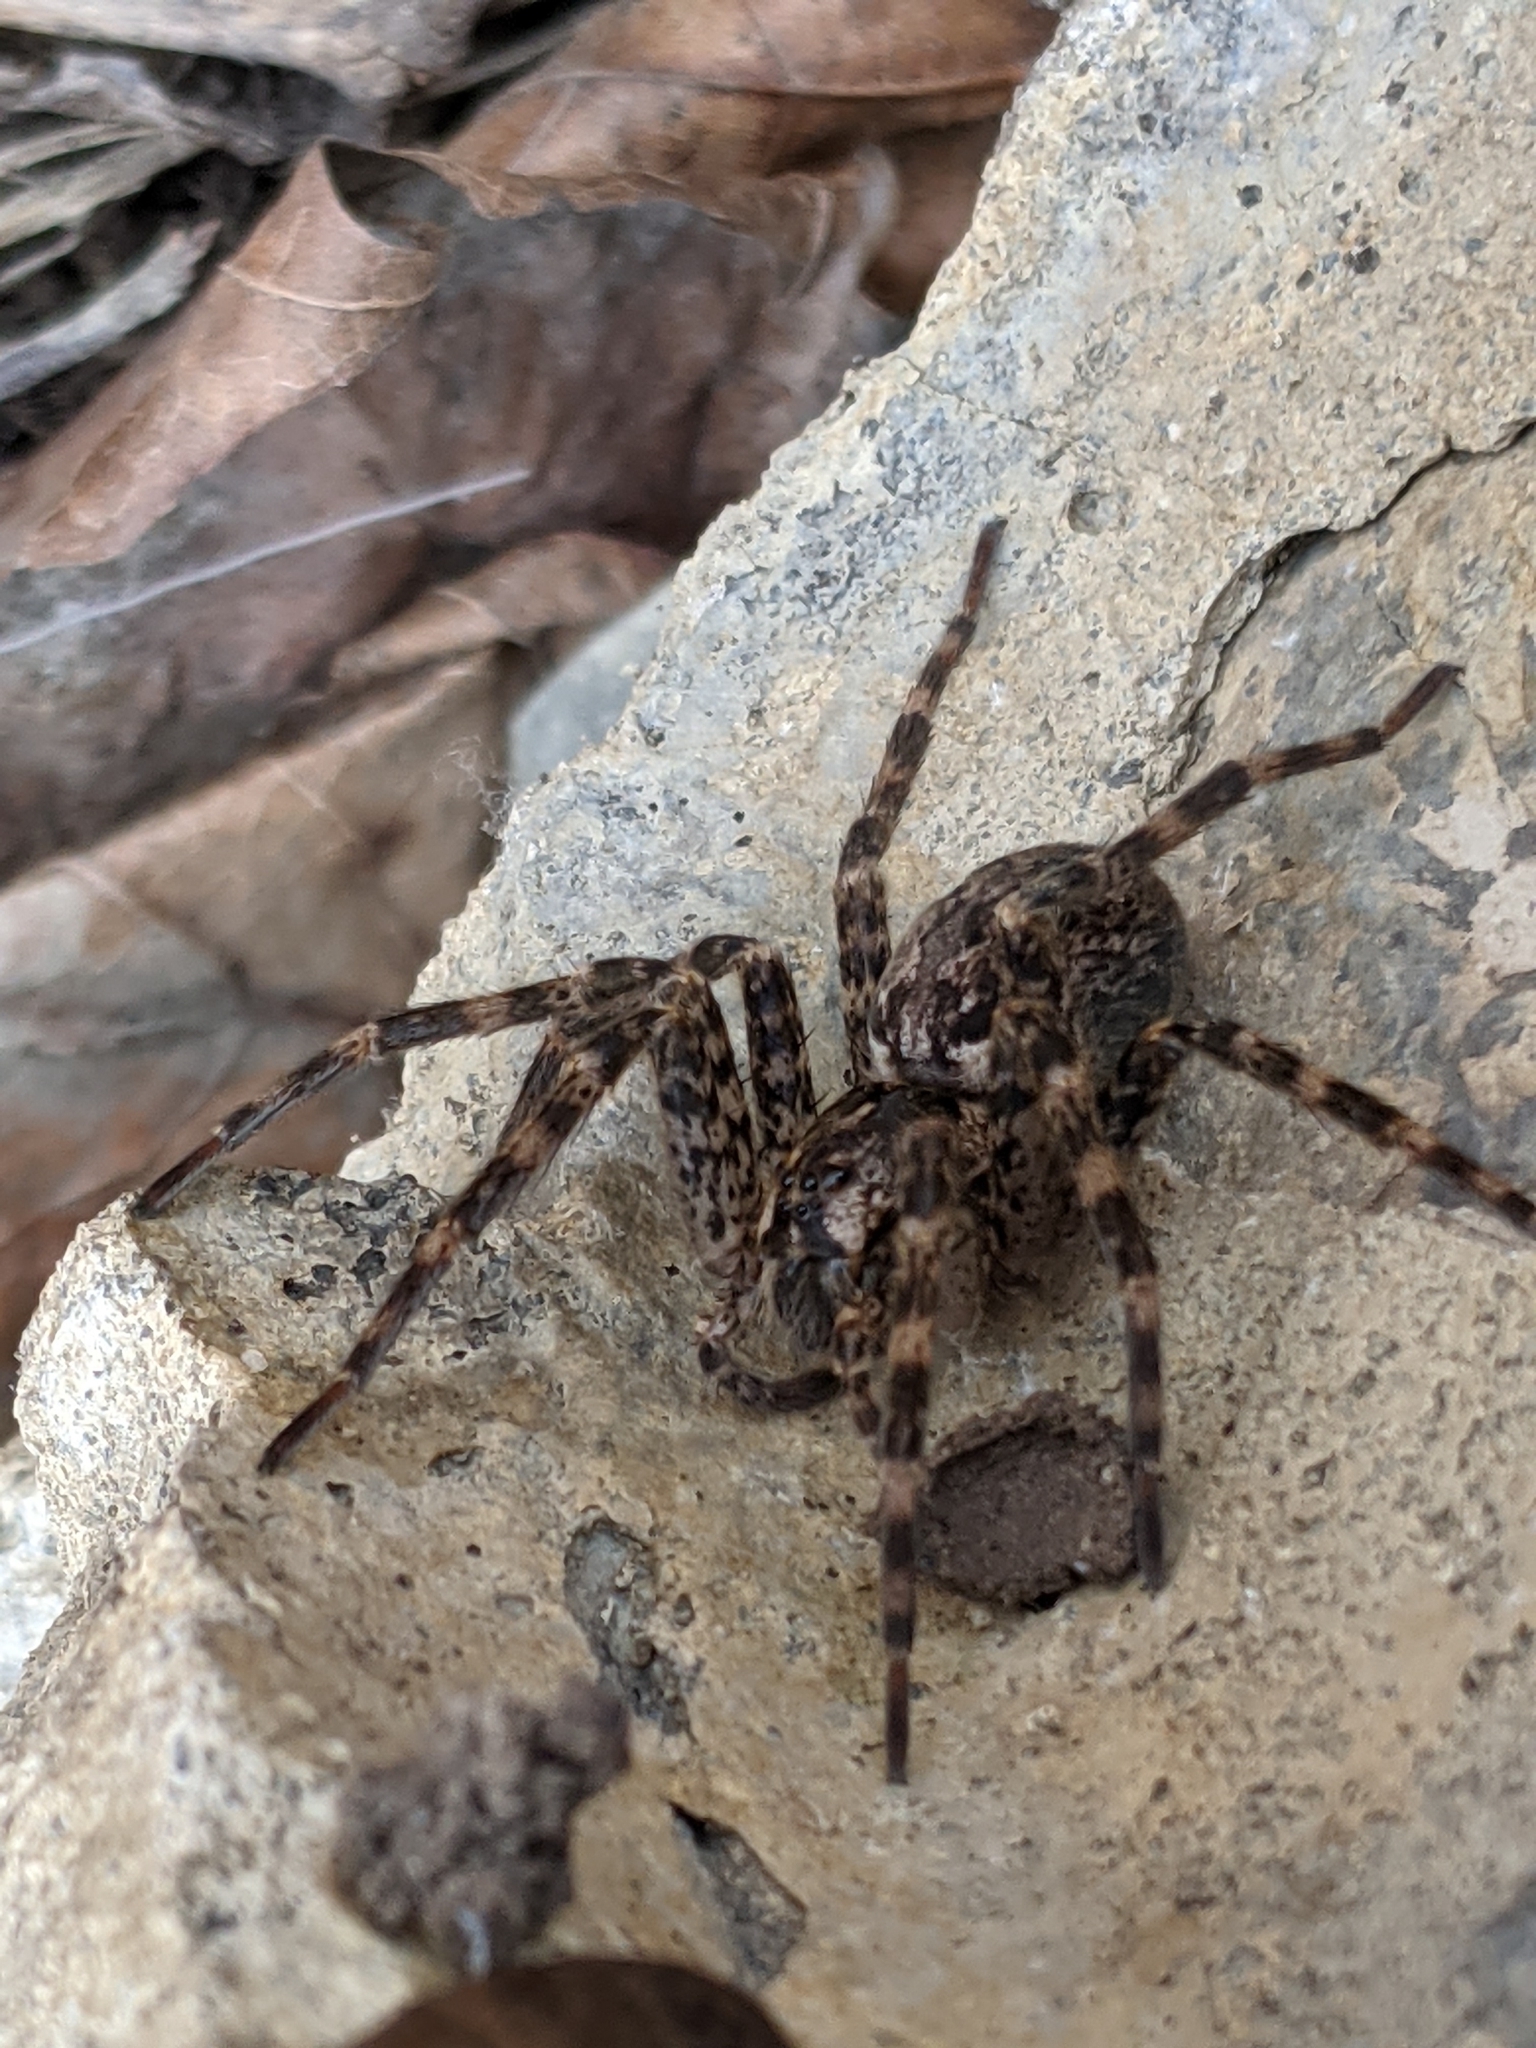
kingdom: Animalia
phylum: Arthropoda
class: Arachnida
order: Araneae
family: Pisauridae
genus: Dolomedes
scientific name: Dolomedes tenebrosus
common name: Dark fishing spider
